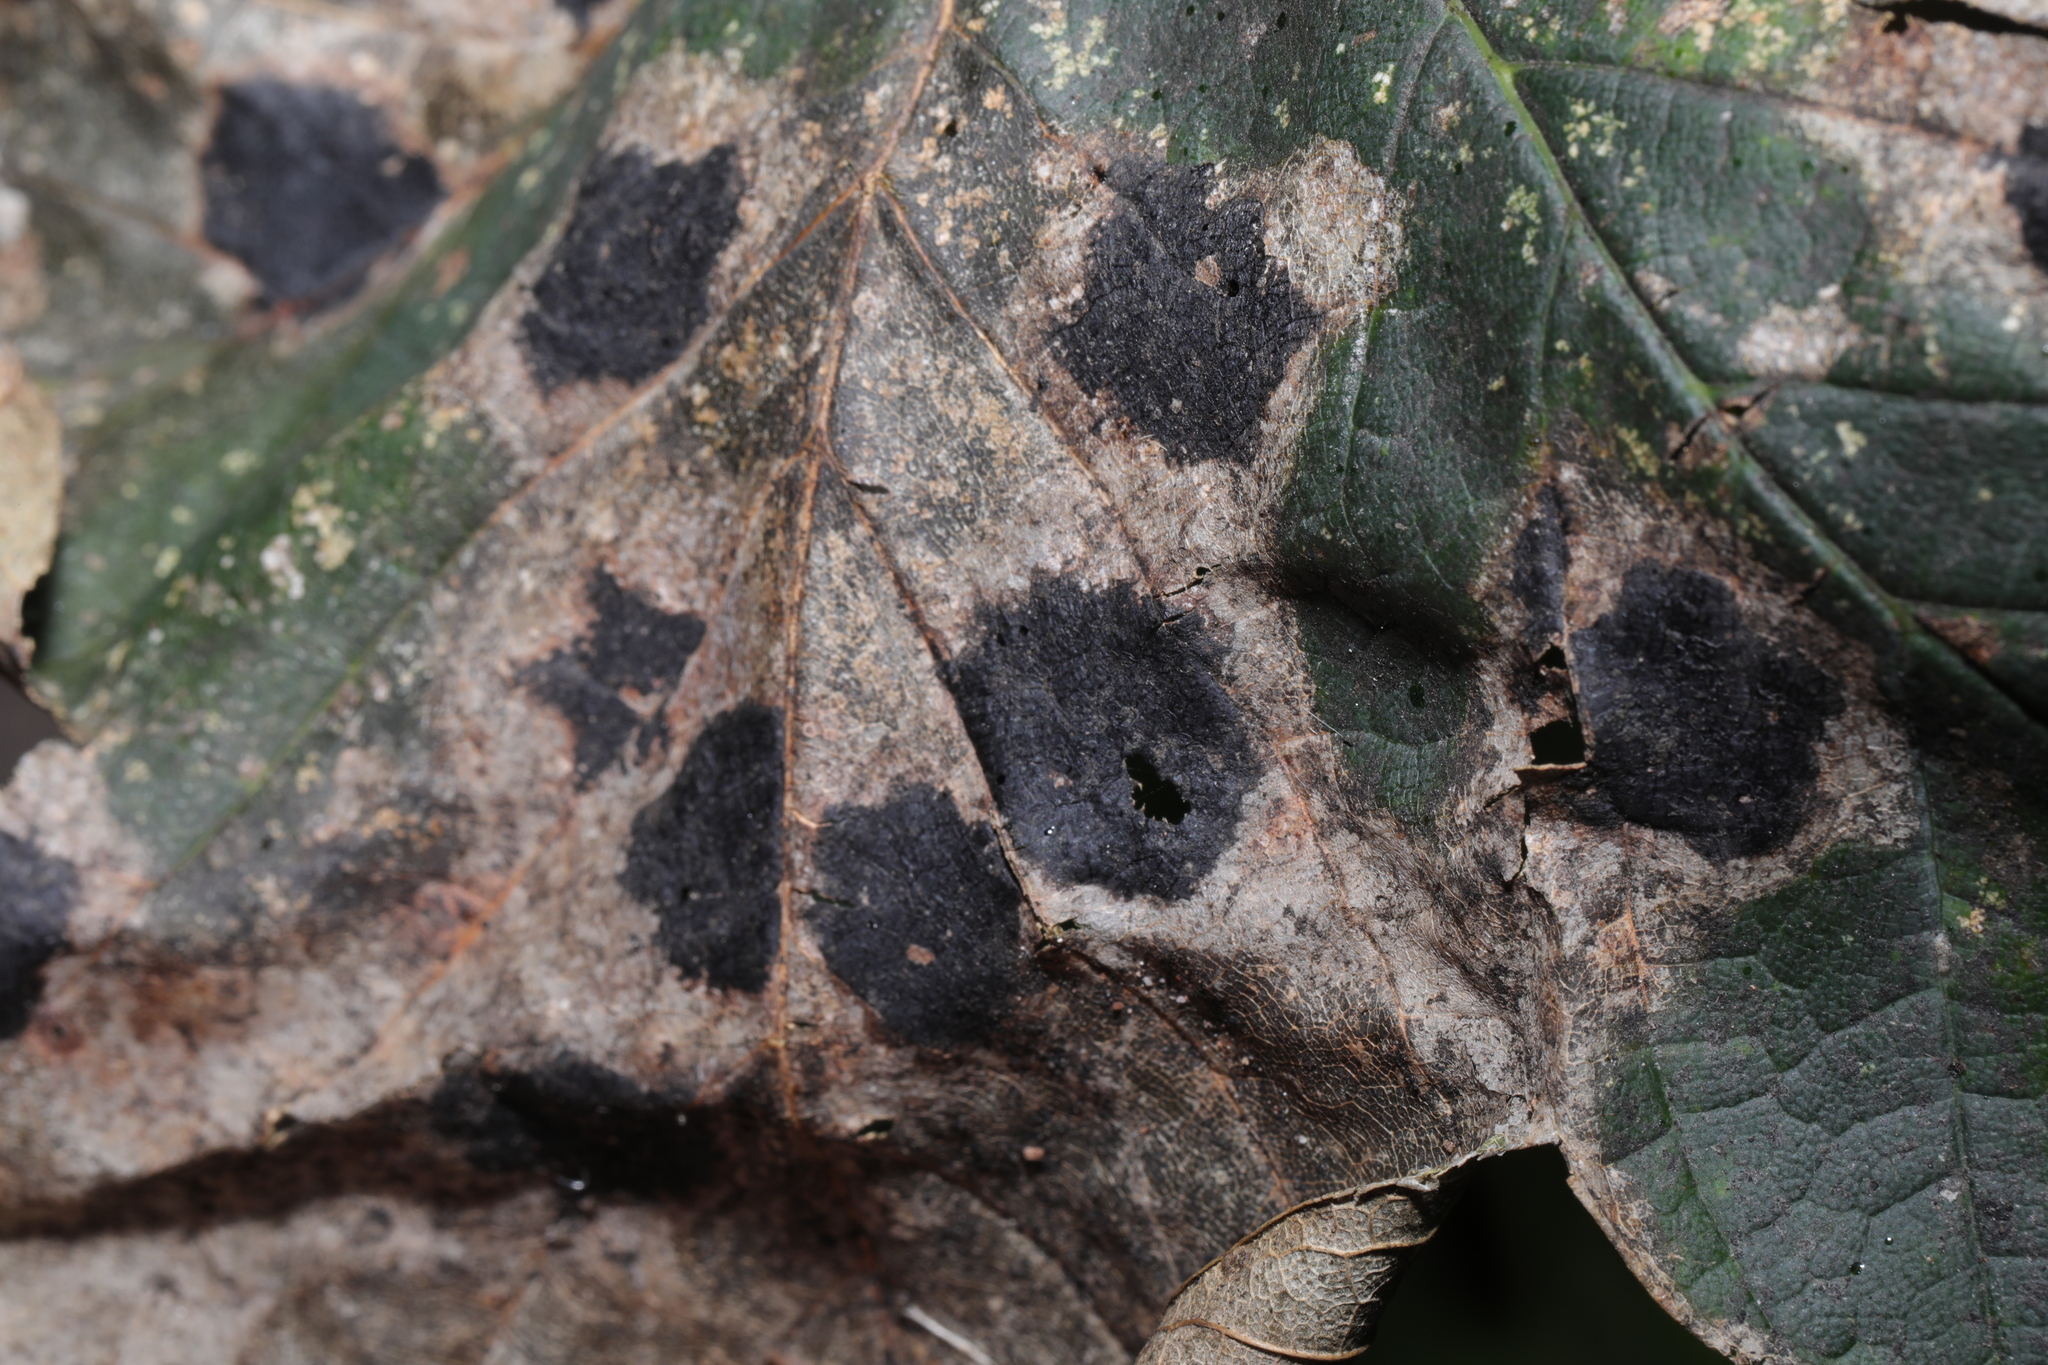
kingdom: Fungi
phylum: Ascomycota
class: Leotiomycetes
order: Rhytismatales
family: Rhytismataceae
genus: Rhytisma
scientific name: Rhytisma acerinum
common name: European tar spot
